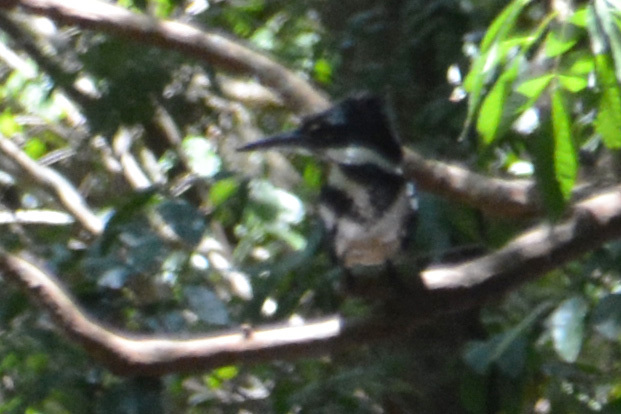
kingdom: Animalia
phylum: Chordata
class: Aves
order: Coraciiformes
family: Alcedinidae
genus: Chloroceryle
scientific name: Chloroceryle amazona
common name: Amazon kingfisher
